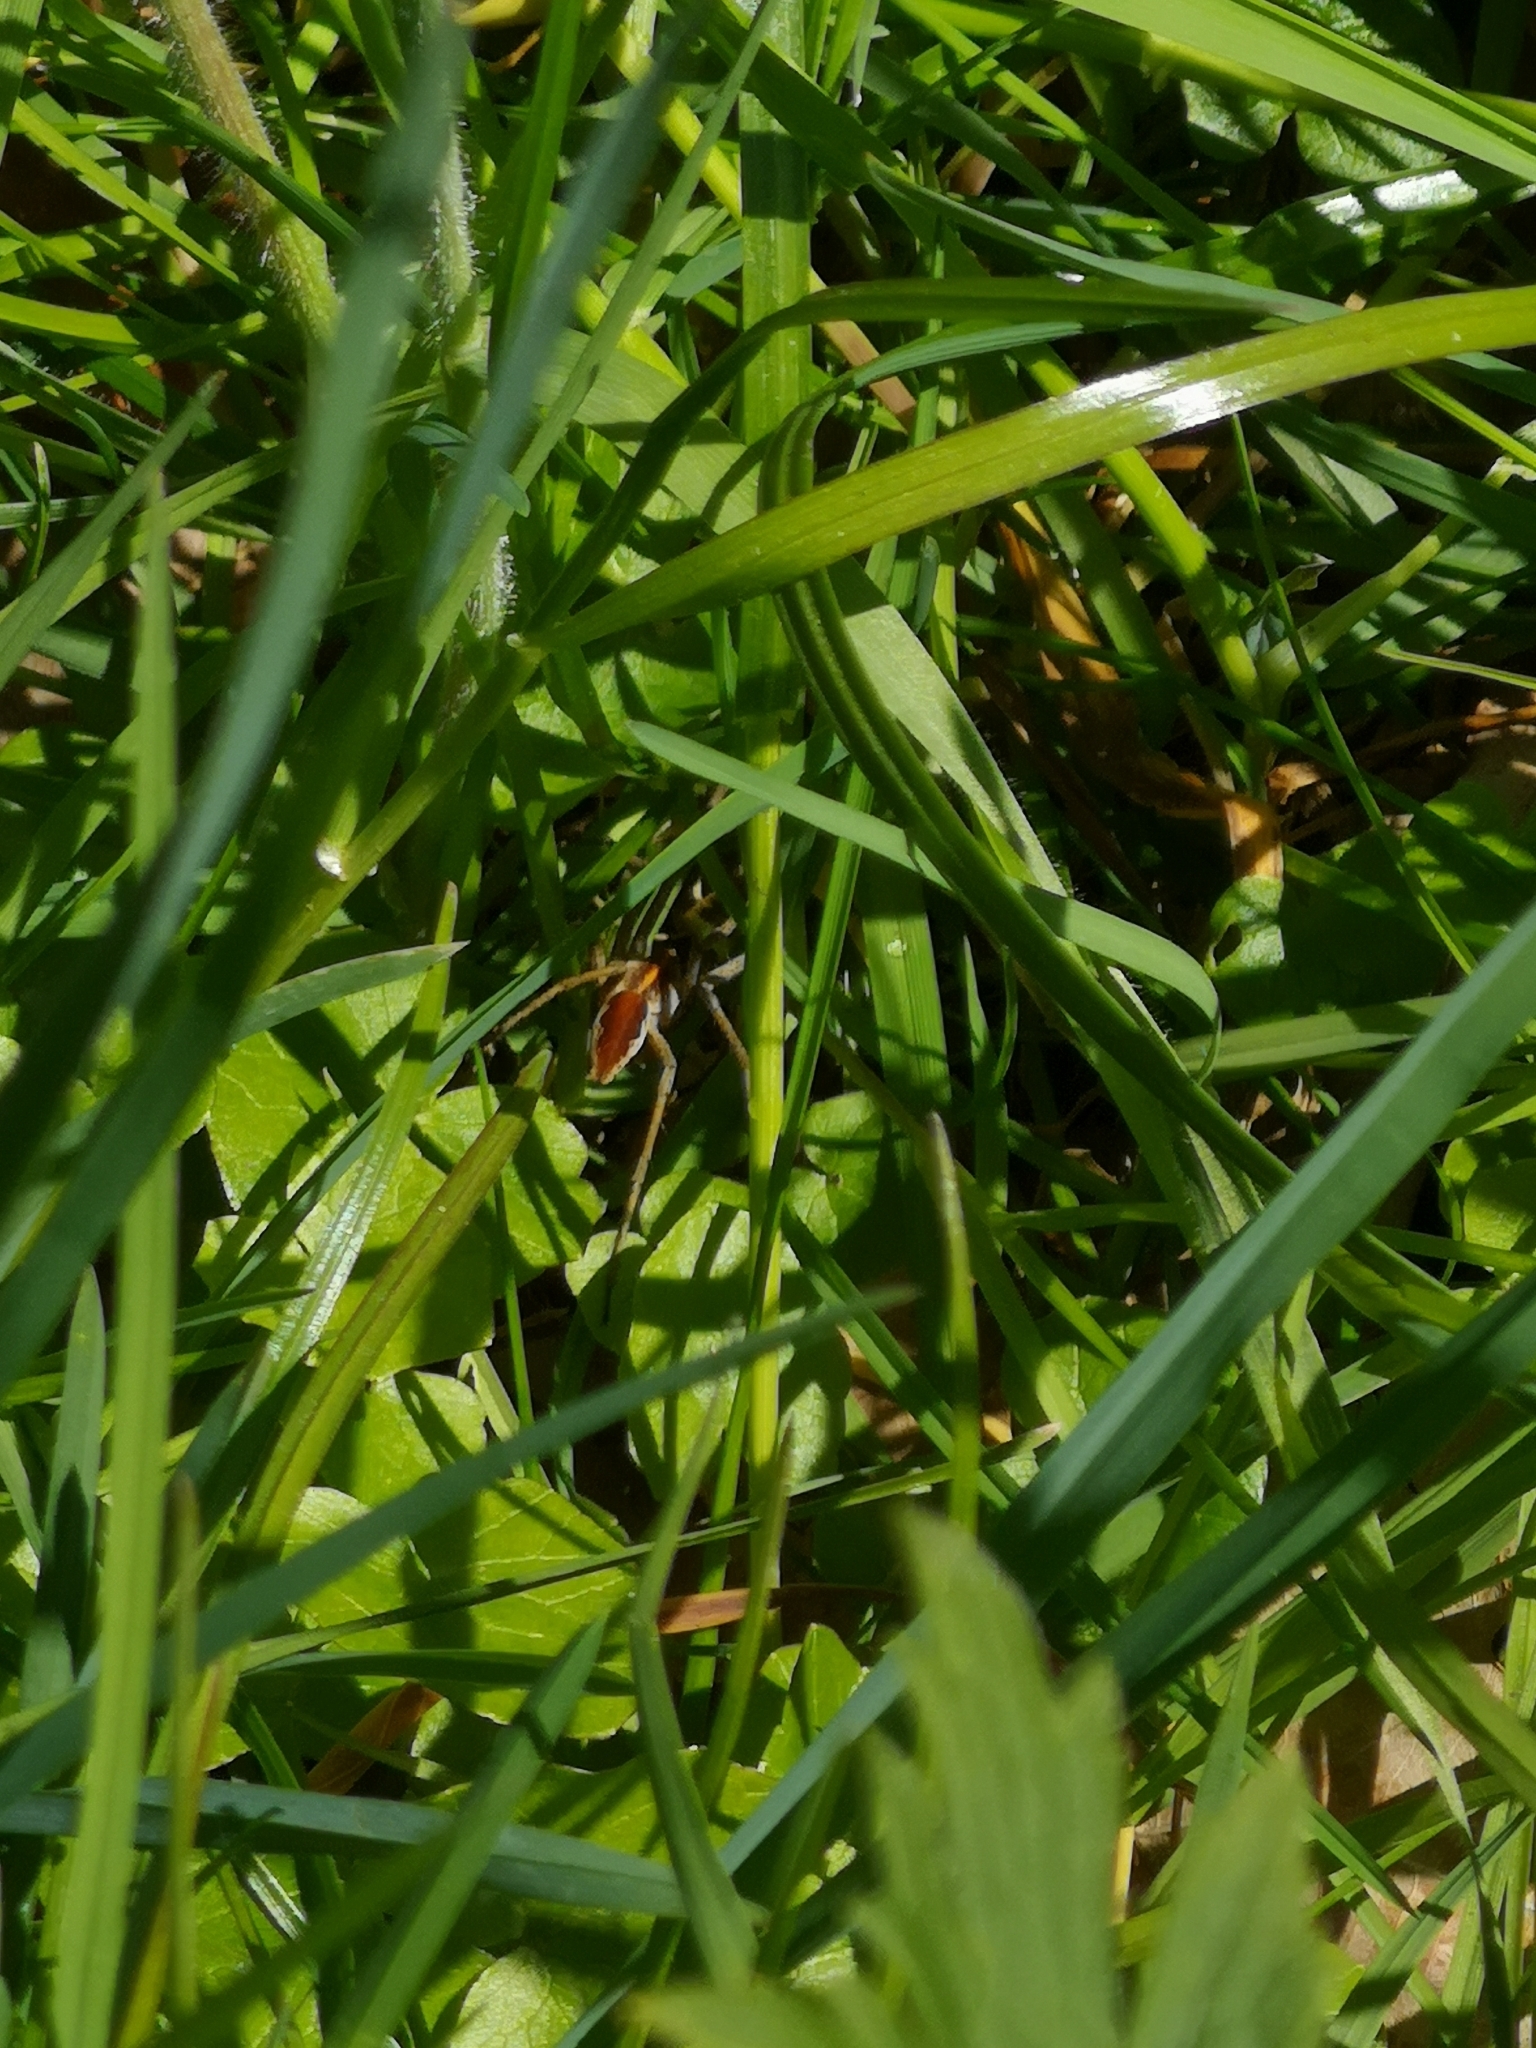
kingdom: Animalia
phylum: Arthropoda
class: Arachnida
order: Araneae
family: Pisauridae
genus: Pisaura
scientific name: Pisaura mirabilis
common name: Tent spider
